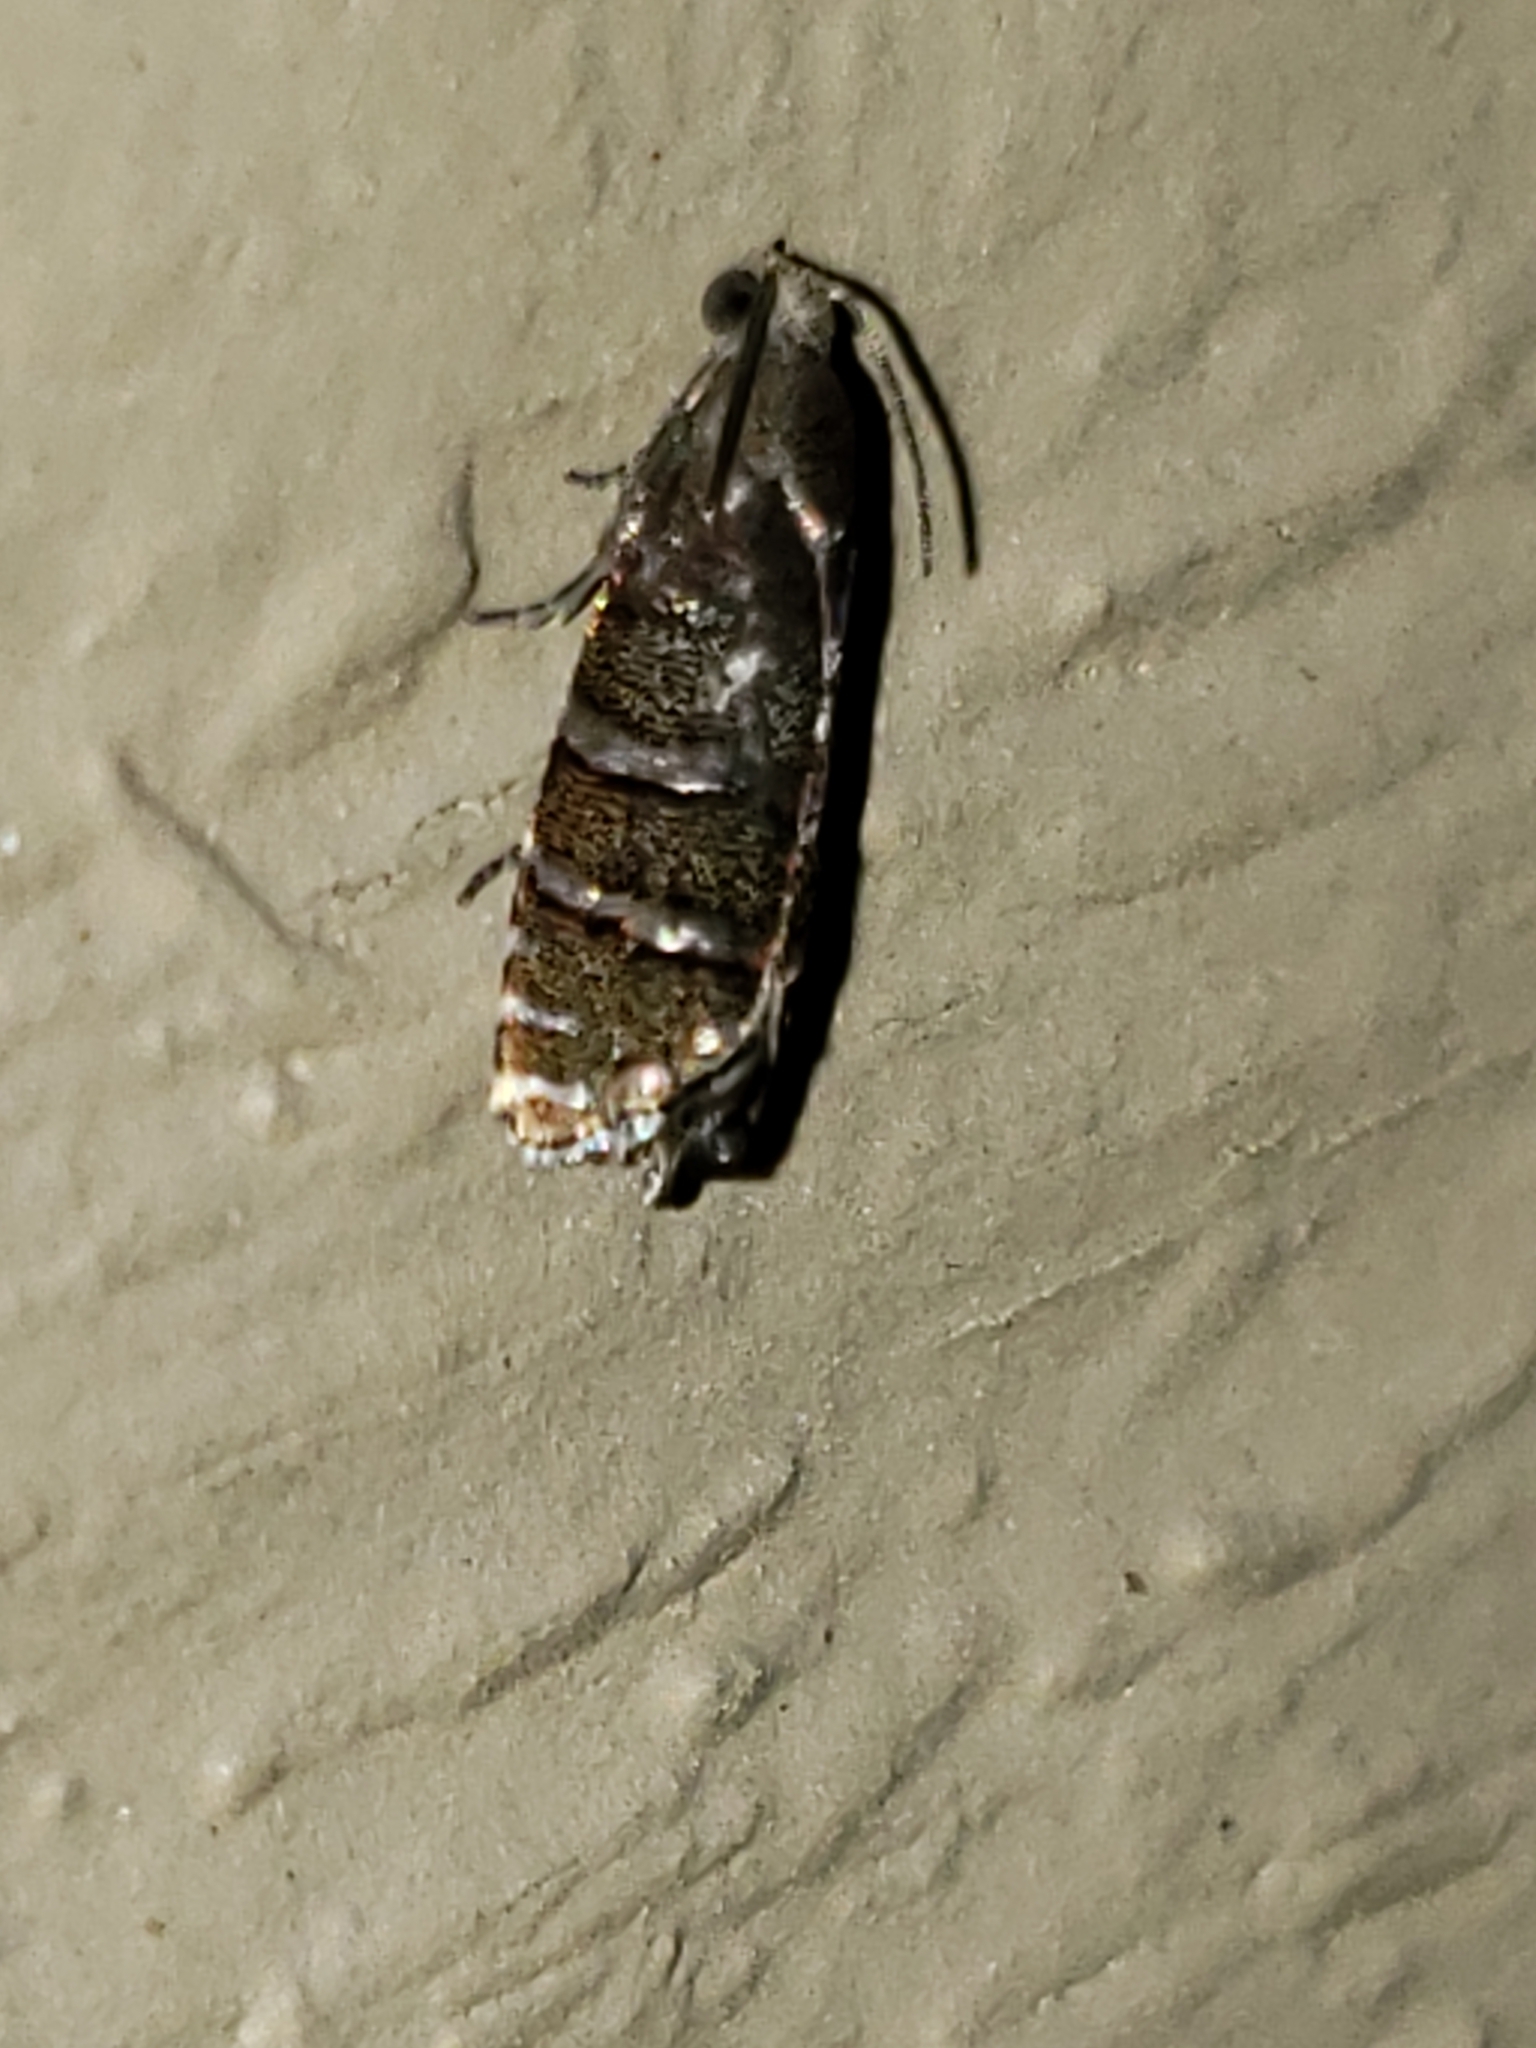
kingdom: Animalia
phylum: Arthropoda
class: Insecta
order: Lepidoptera
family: Tortricidae
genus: Cydia
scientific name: Cydia toreuta
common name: Eastern pine seedworm moth
